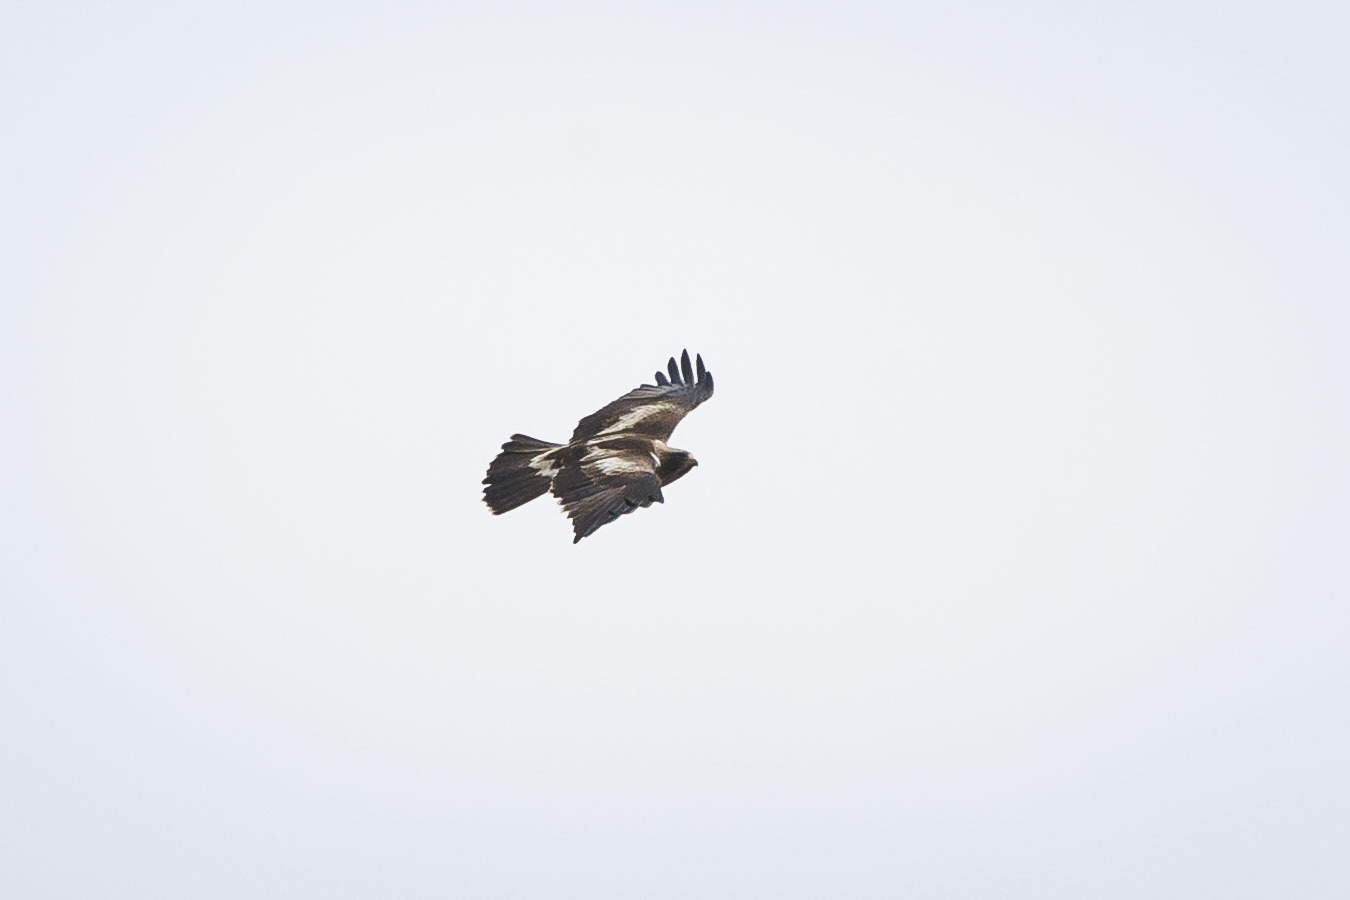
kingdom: Animalia
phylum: Chordata
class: Aves
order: Accipitriformes
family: Accipitridae
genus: Hieraaetus
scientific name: Hieraaetus pennatus
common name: Booted eagle
